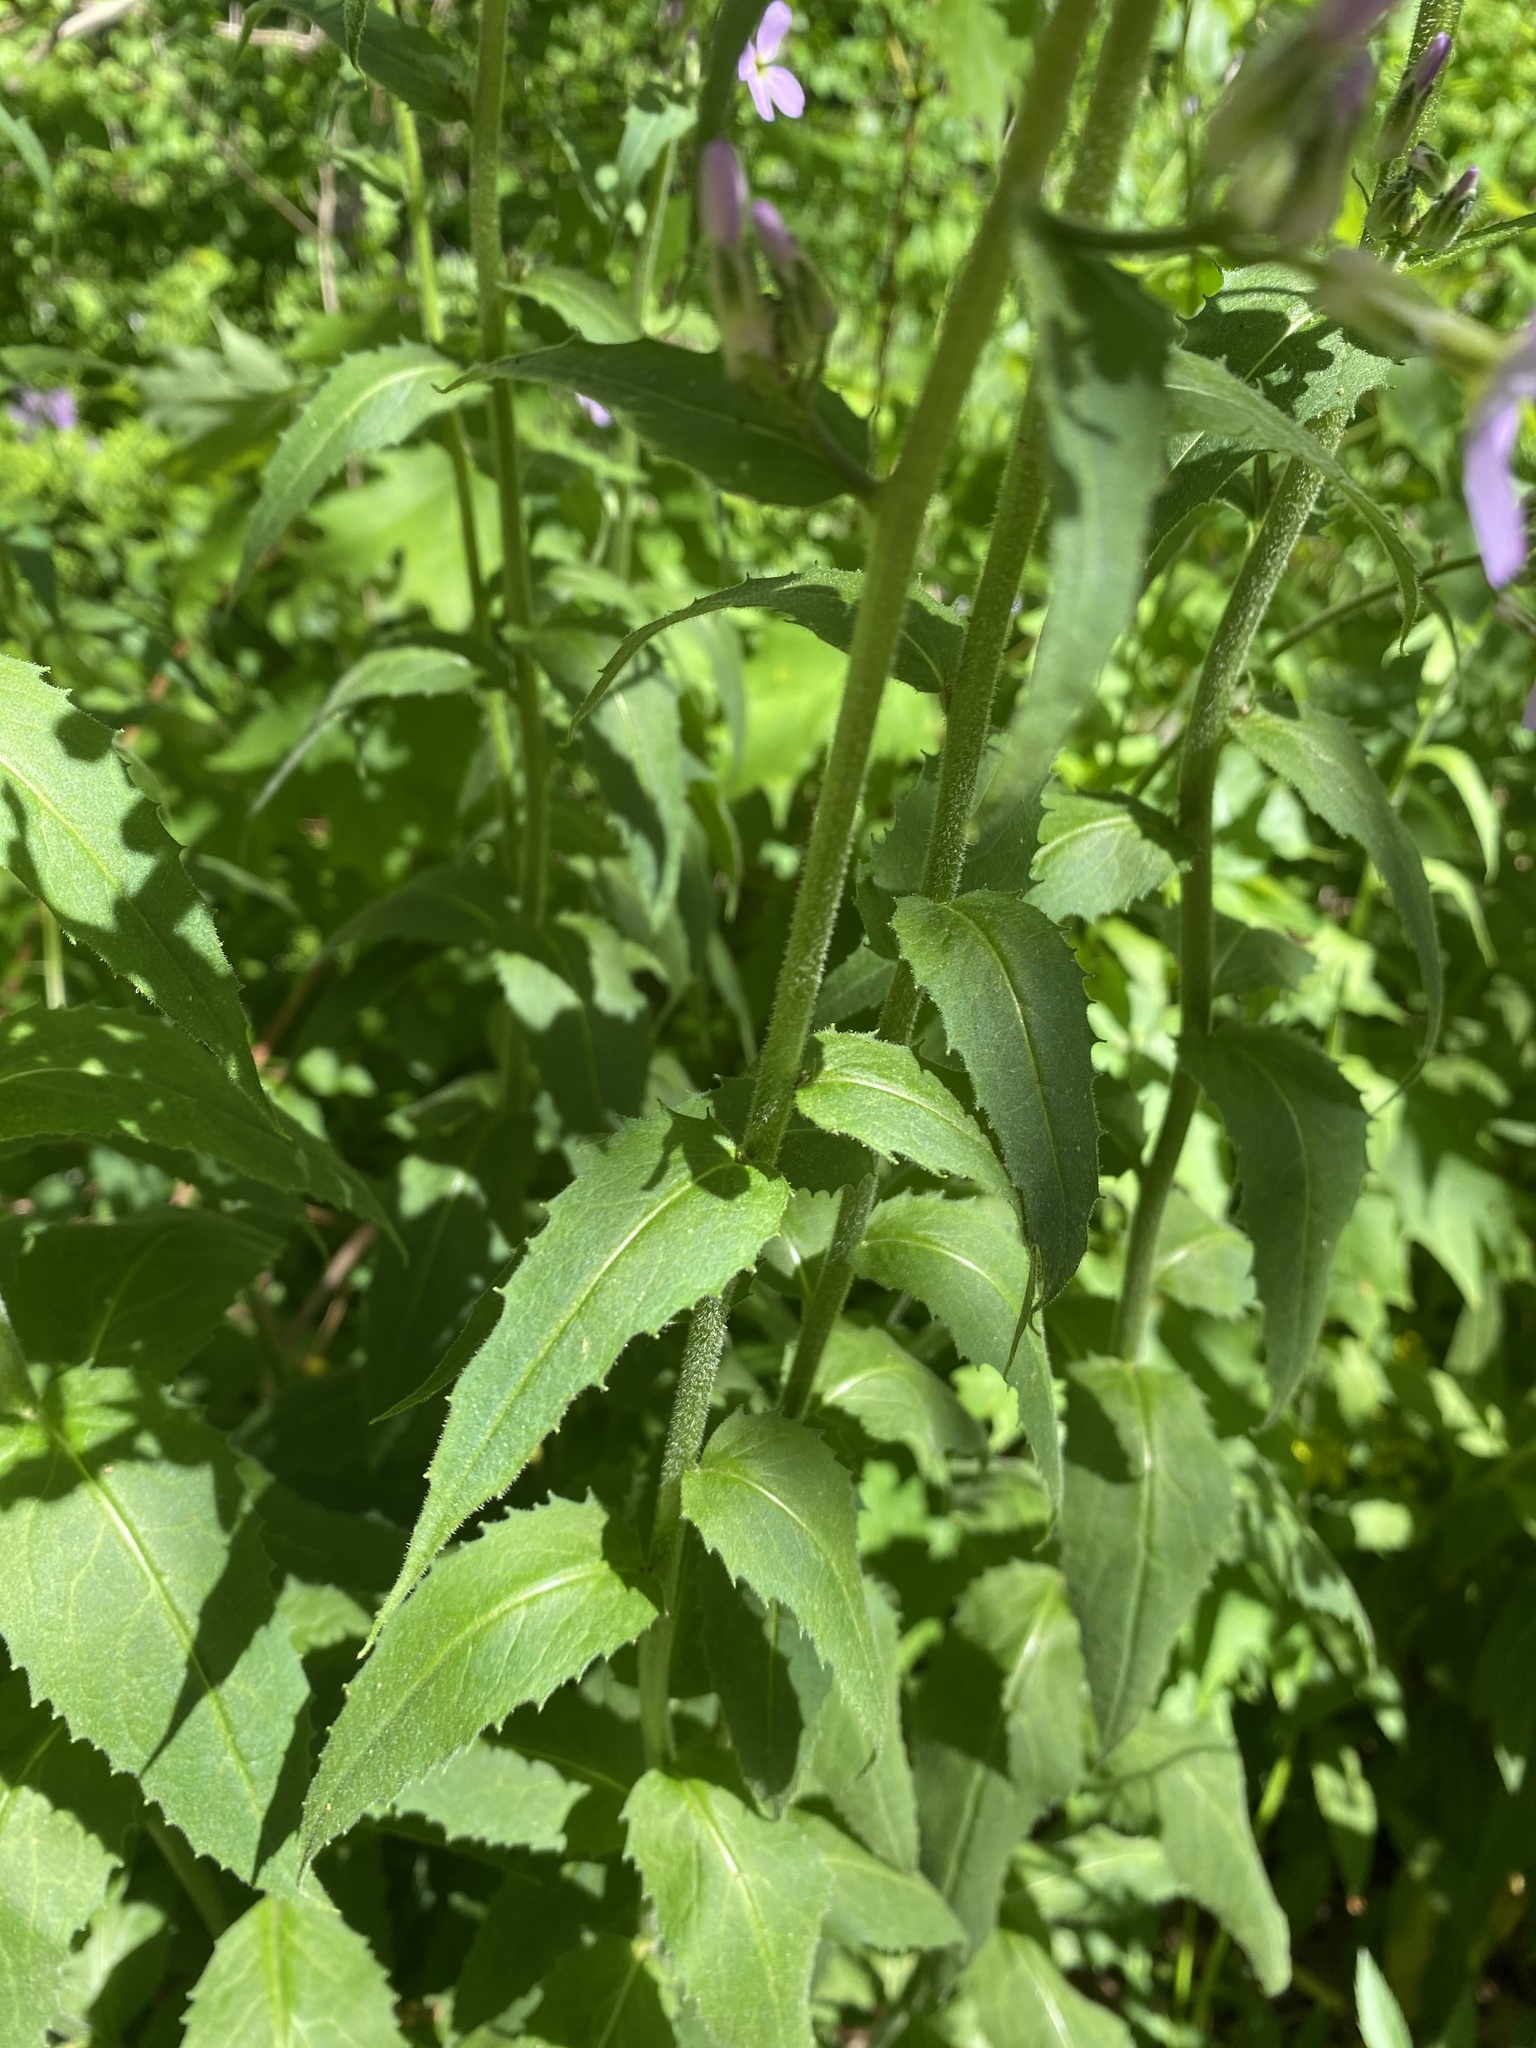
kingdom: Plantae
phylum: Tracheophyta
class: Magnoliopsida
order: Brassicales
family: Brassicaceae
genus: Hesperis
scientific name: Hesperis matronalis
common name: Dame's-violet
